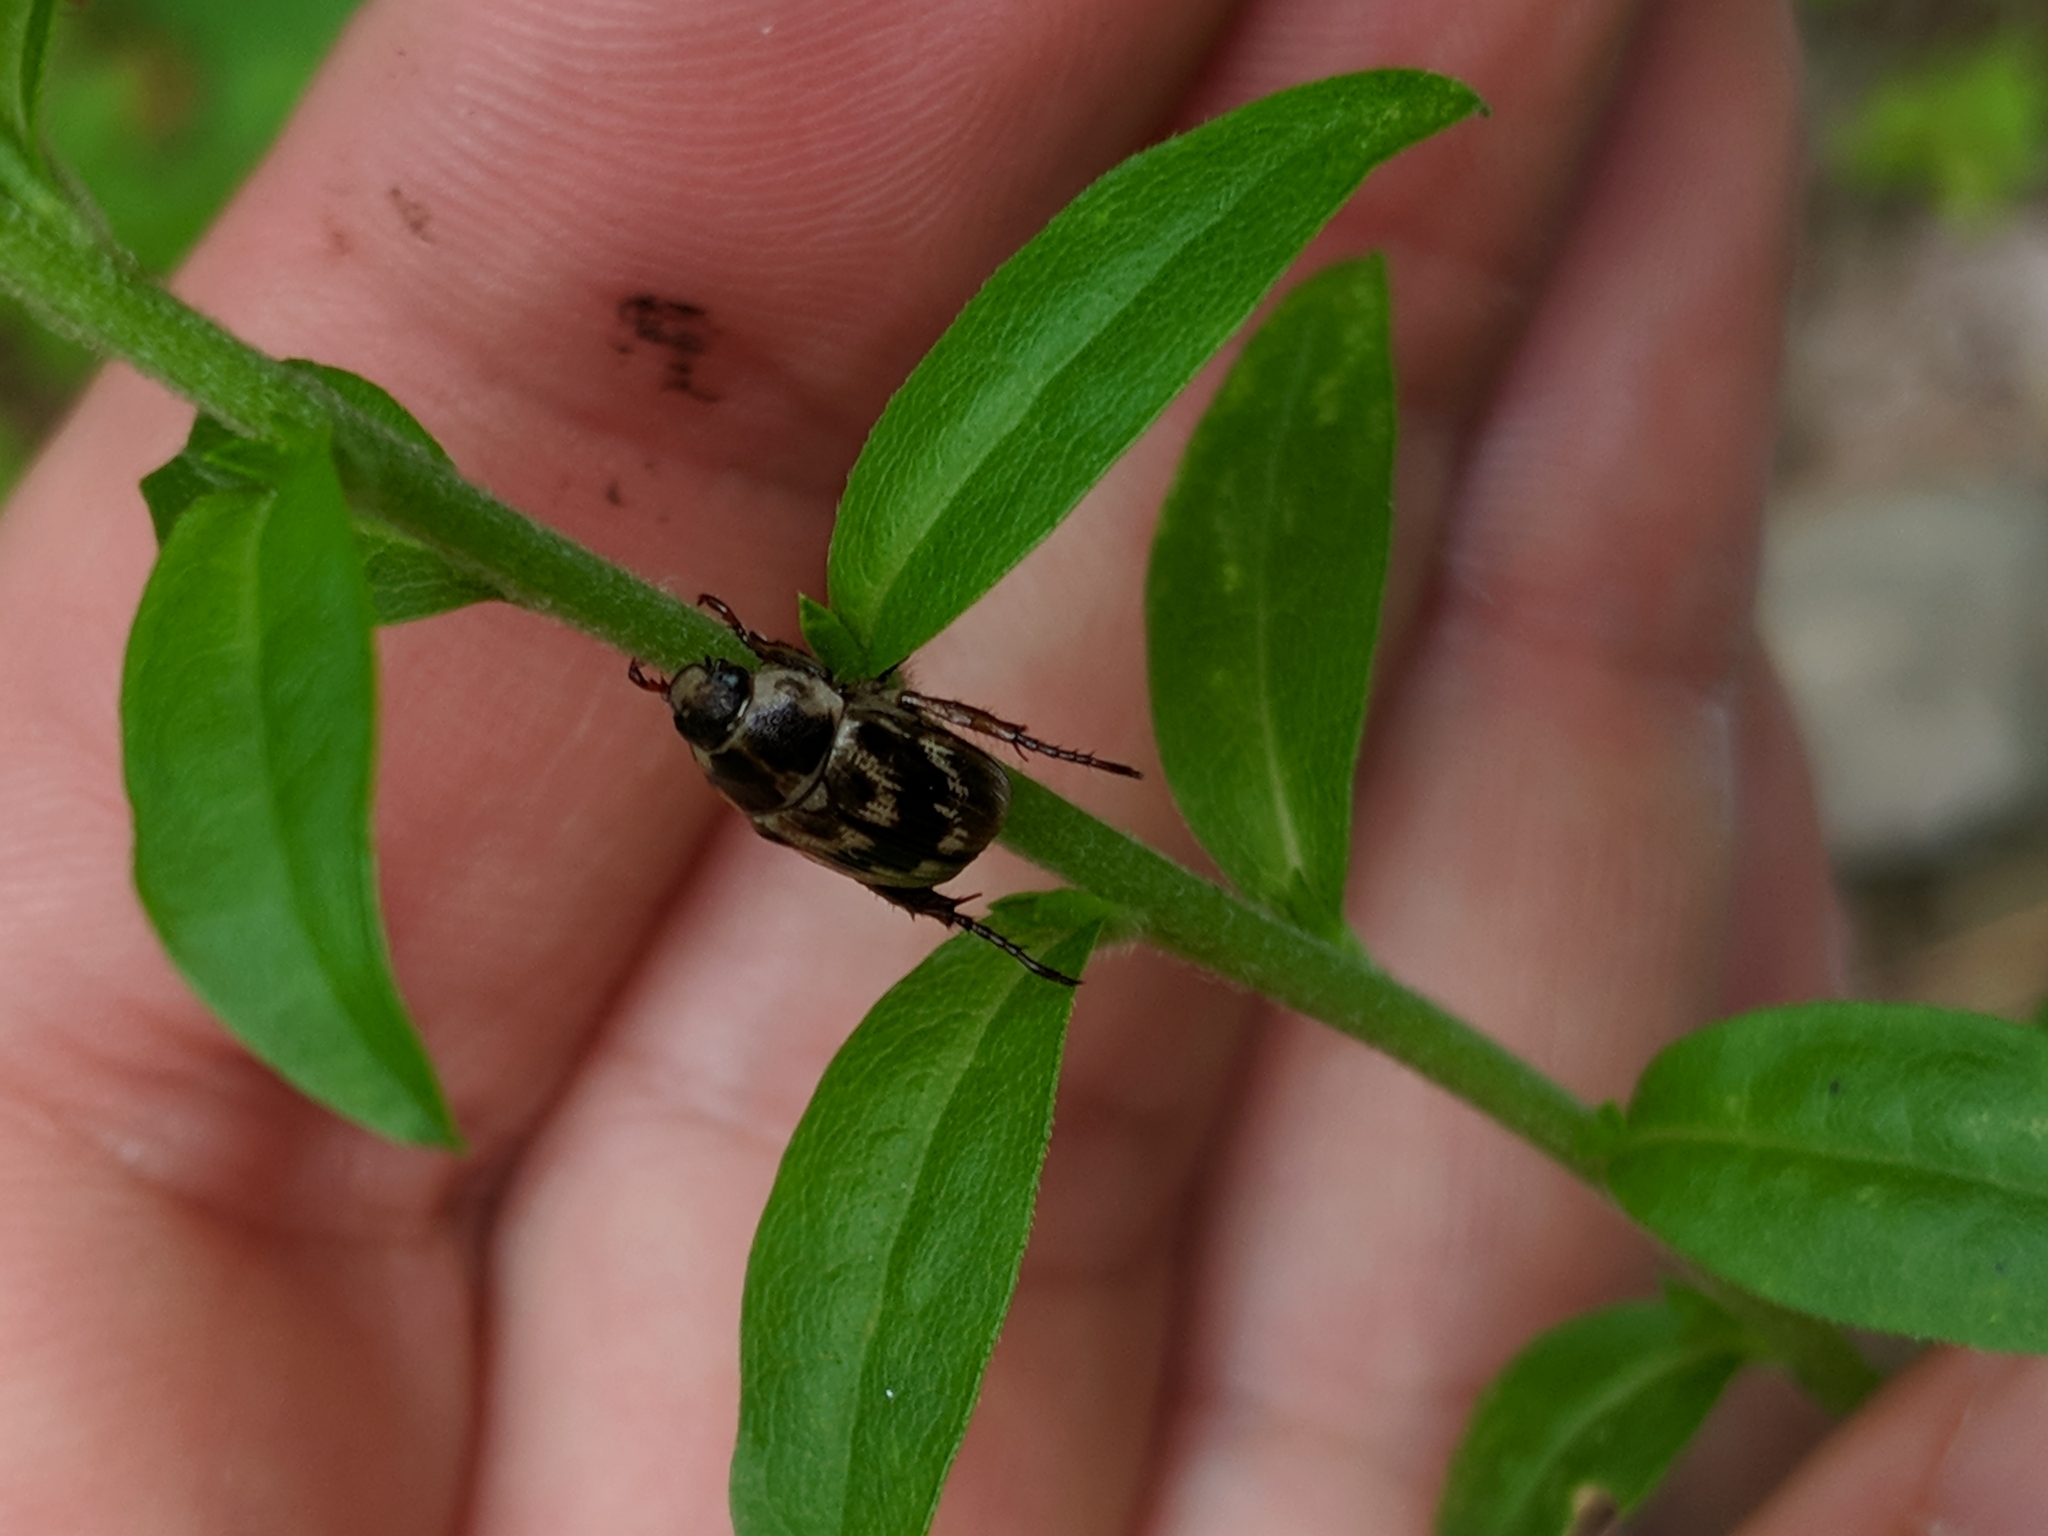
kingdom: Animalia
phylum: Arthropoda
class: Insecta
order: Coleoptera
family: Scarabaeidae
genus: Exomala
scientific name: Exomala orientalis
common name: Oriental beetle
